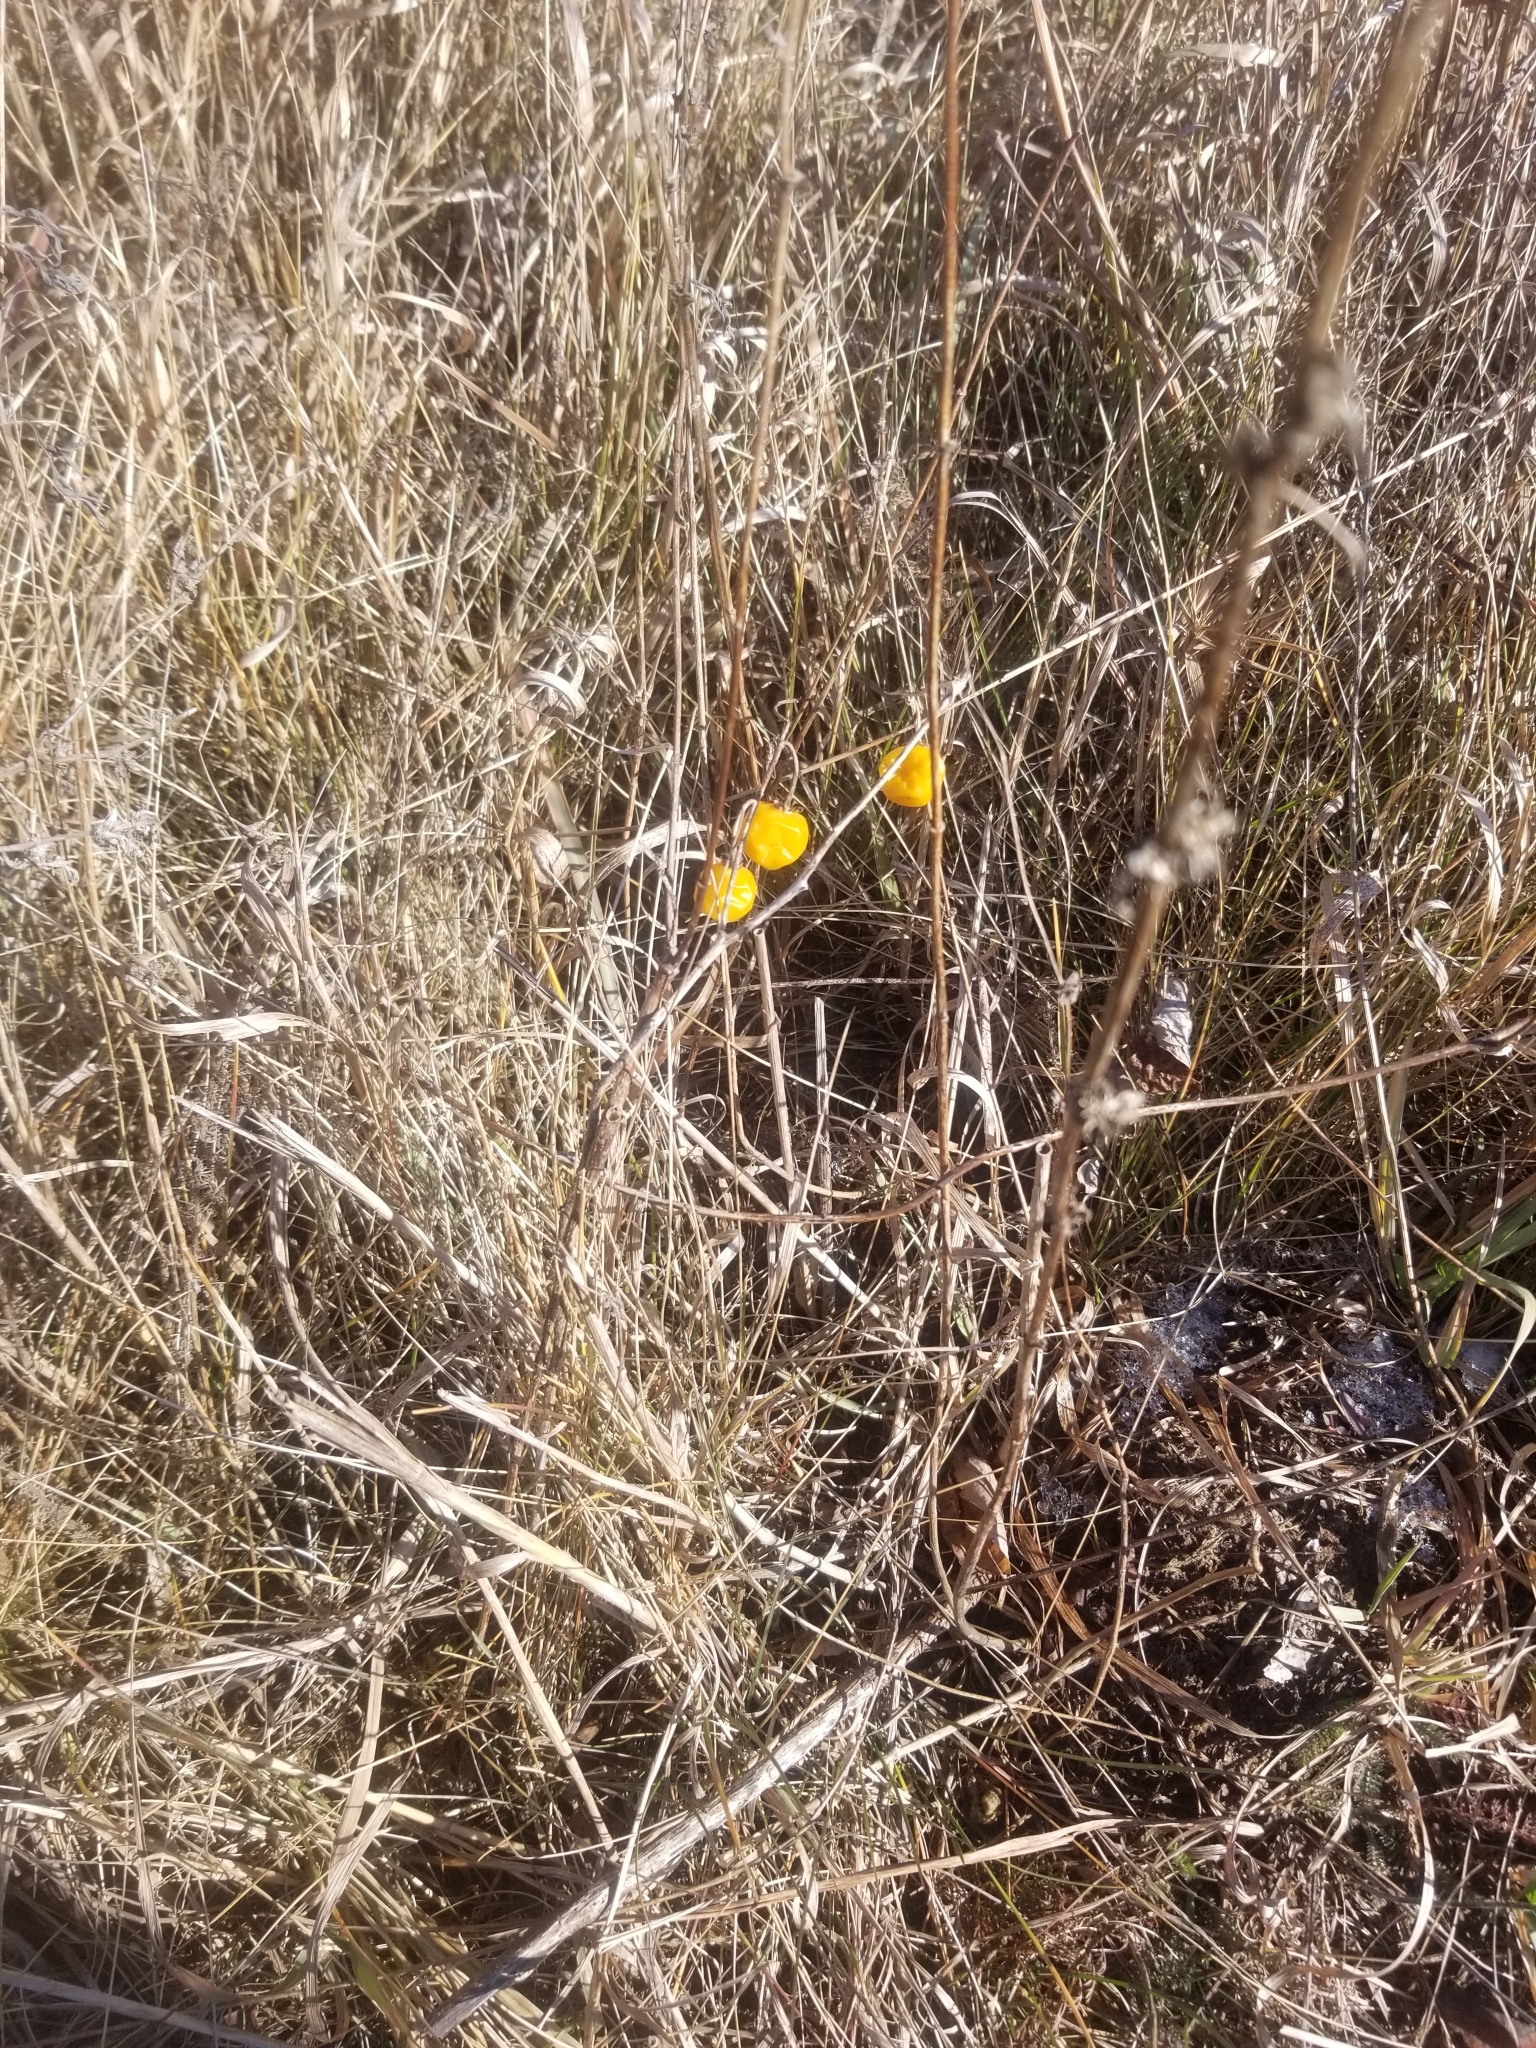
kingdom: Plantae
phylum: Tracheophyta
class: Magnoliopsida
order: Solanales
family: Solanaceae
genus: Solanum
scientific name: Solanum carolinense
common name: Horse-nettle
